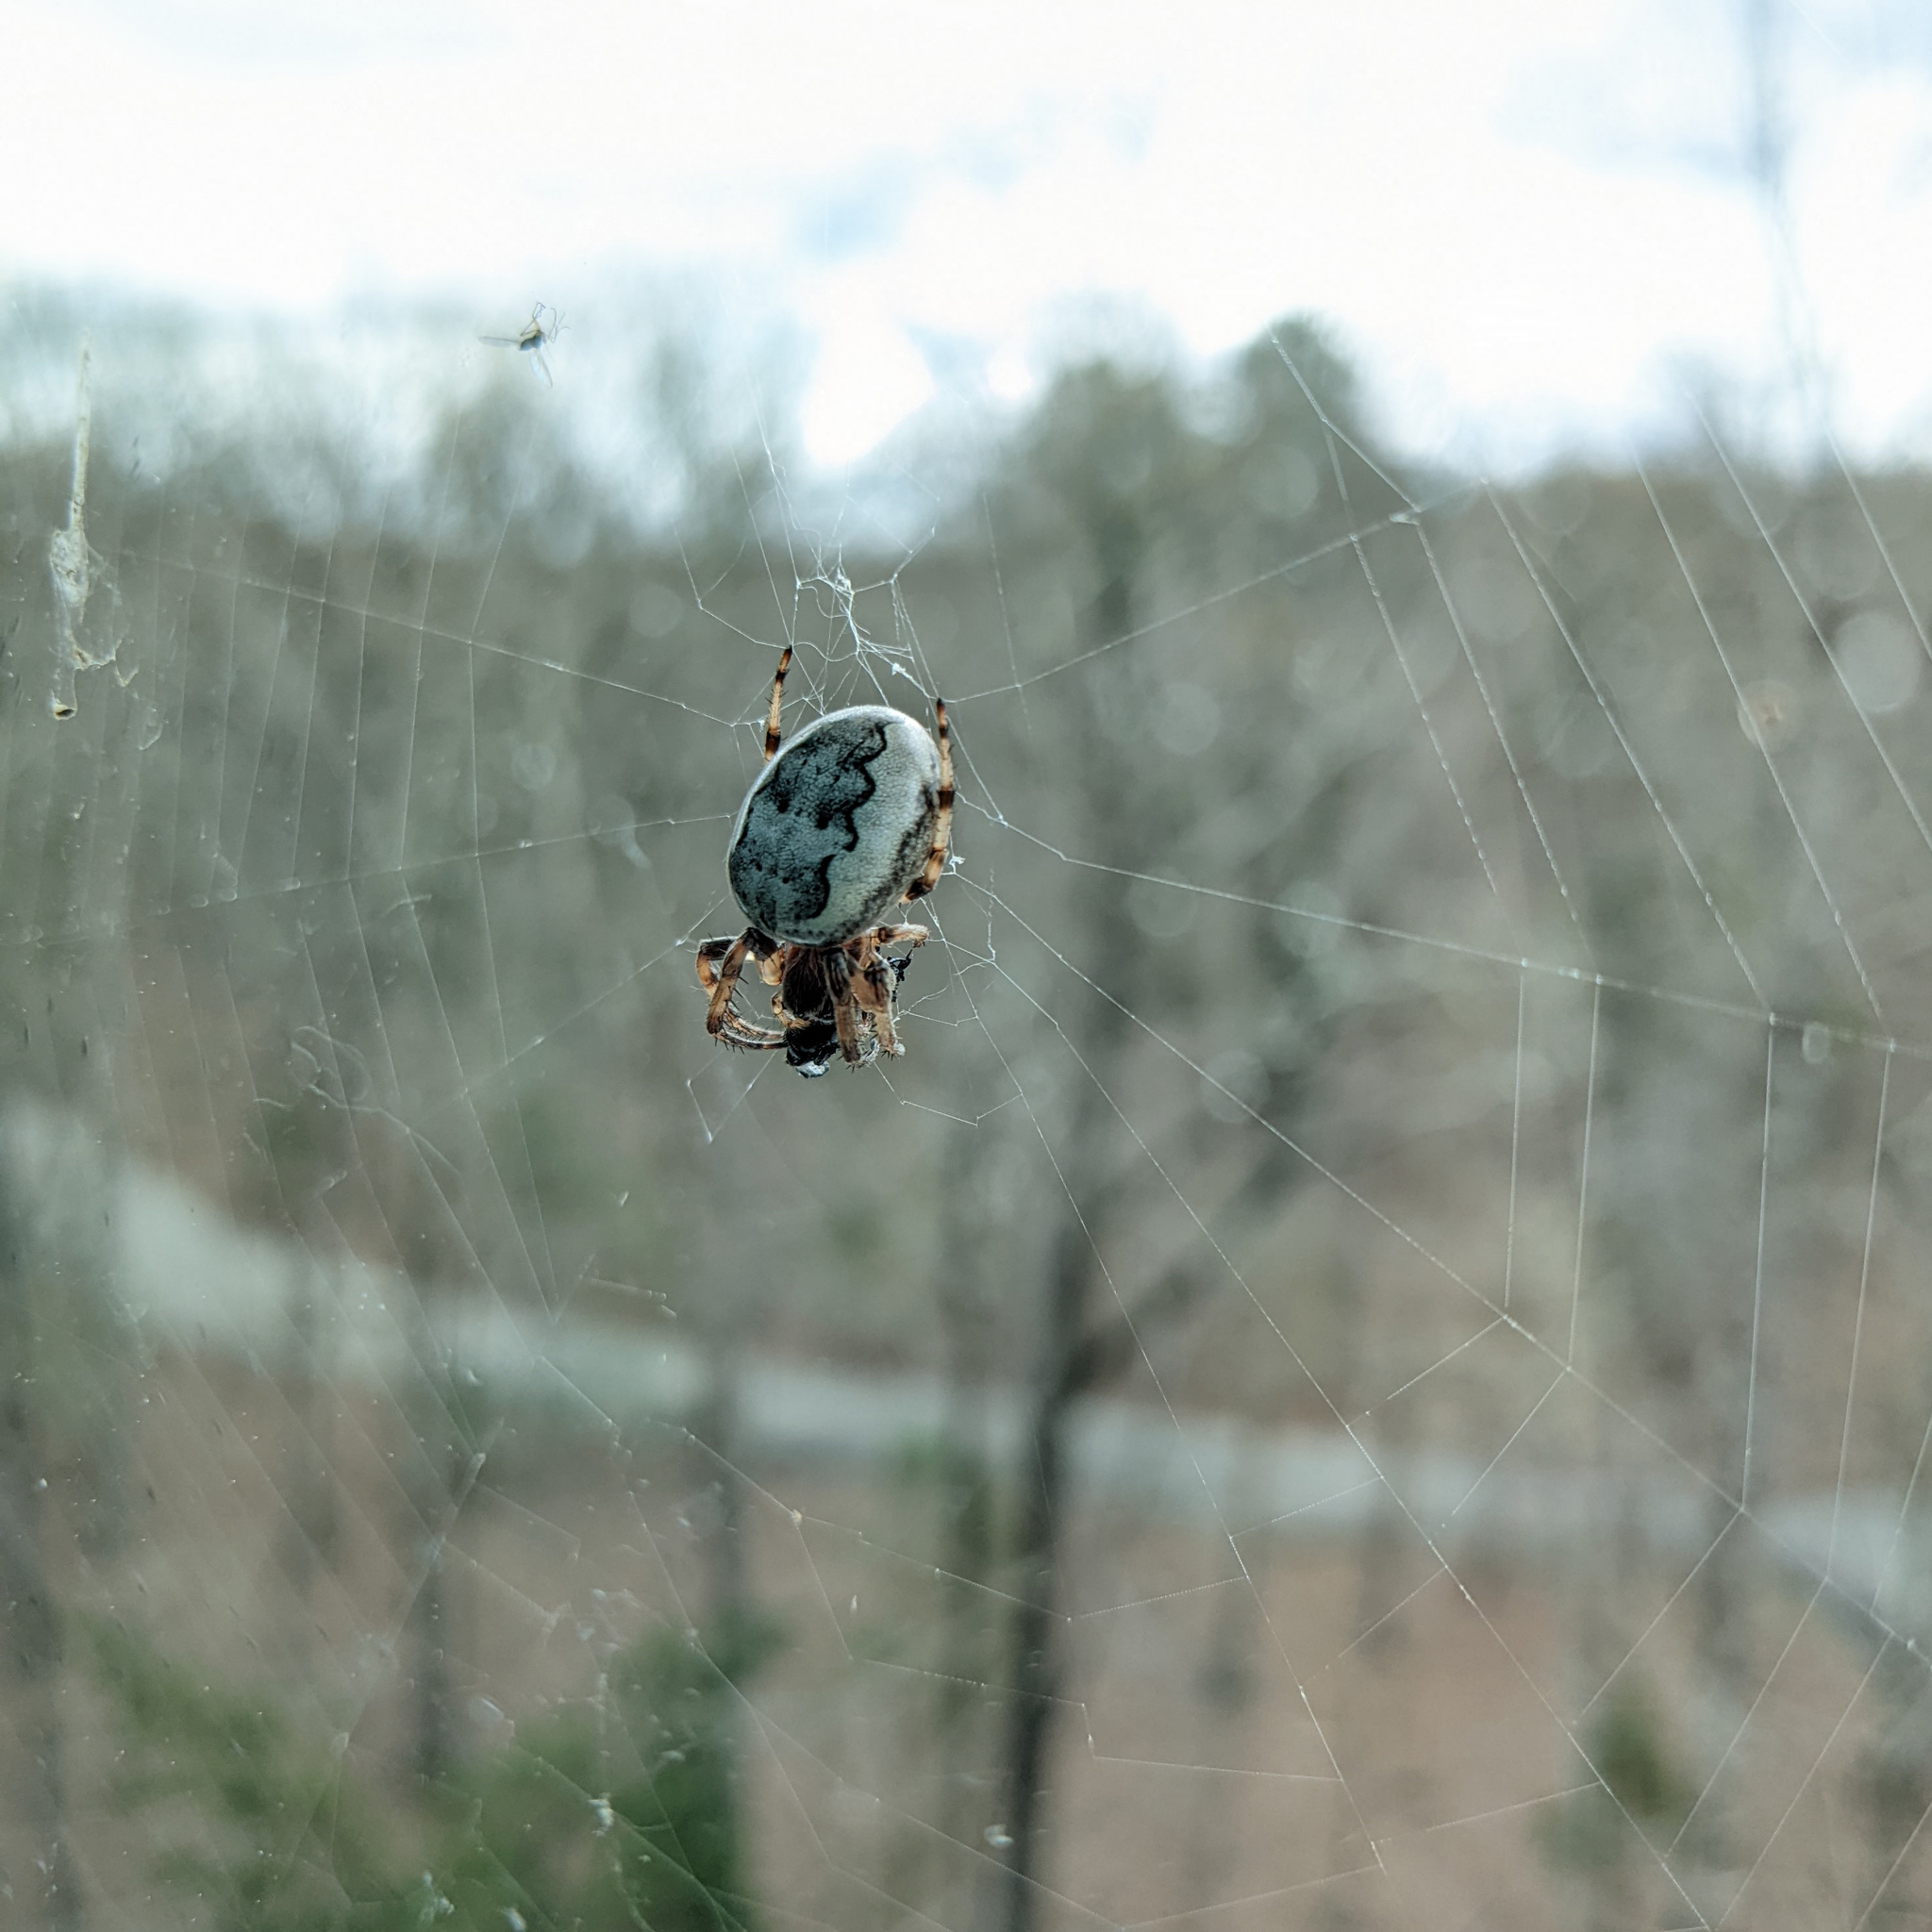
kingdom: Animalia
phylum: Arthropoda
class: Arachnida
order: Araneae
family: Araneidae
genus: Larinioides
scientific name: Larinioides cornutus
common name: Furrow orbweaver
